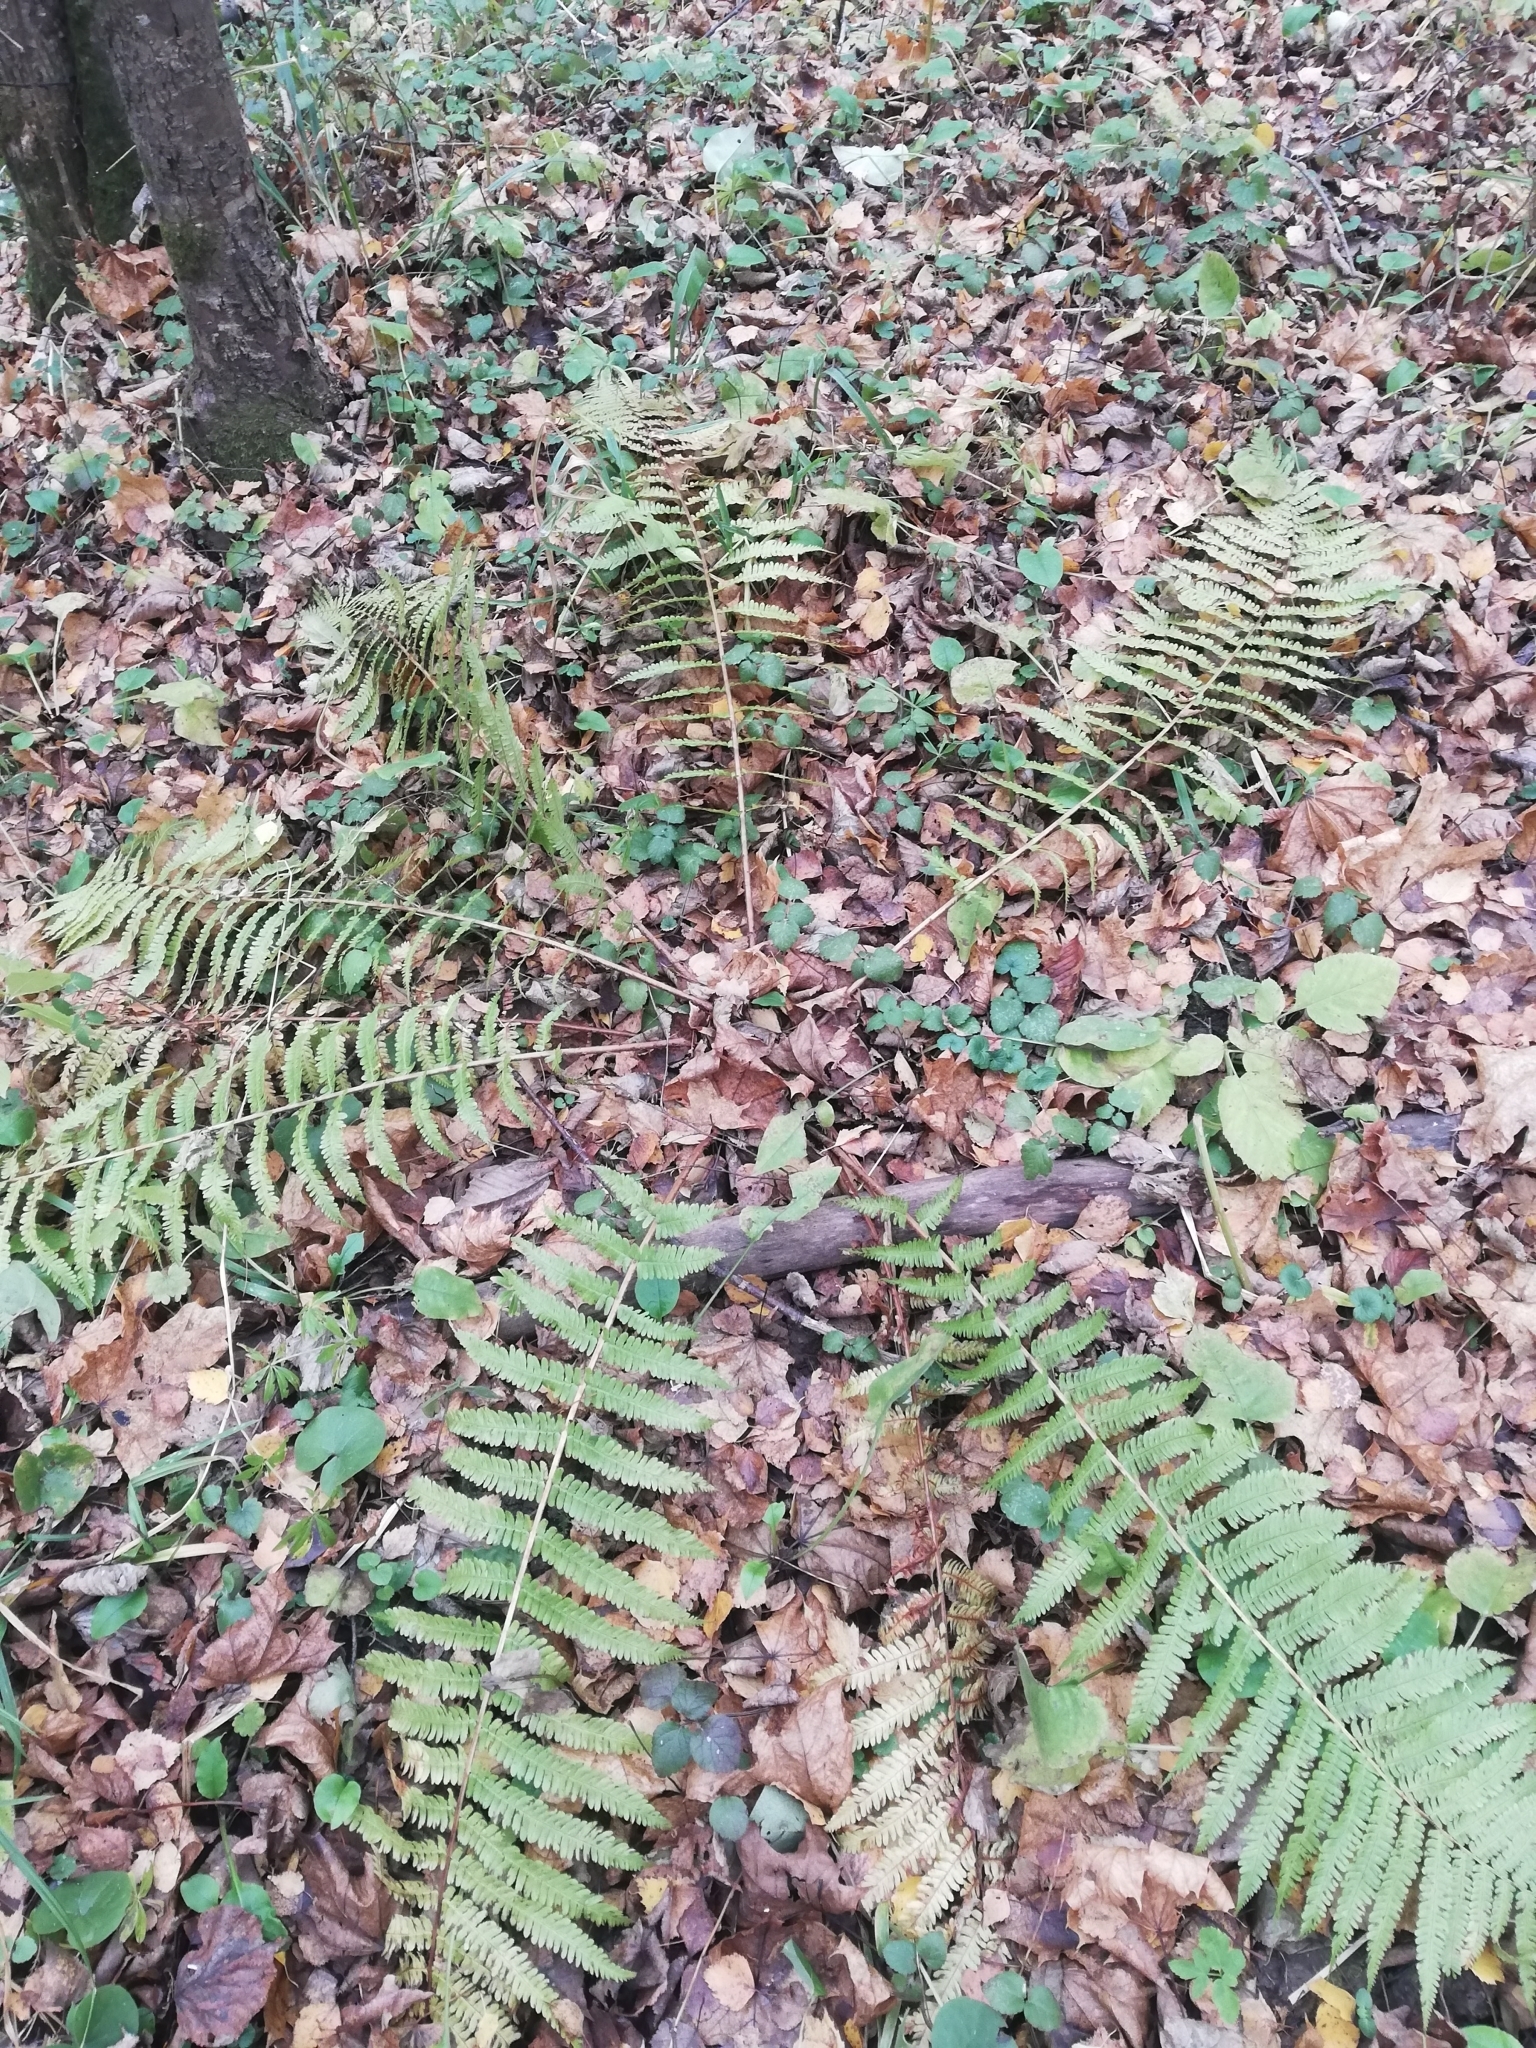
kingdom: Plantae
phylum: Tracheophyta
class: Polypodiopsida
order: Polypodiales
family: Dryopteridaceae
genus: Dryopteris
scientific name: Dryopteris filix-mas
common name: Male fern
